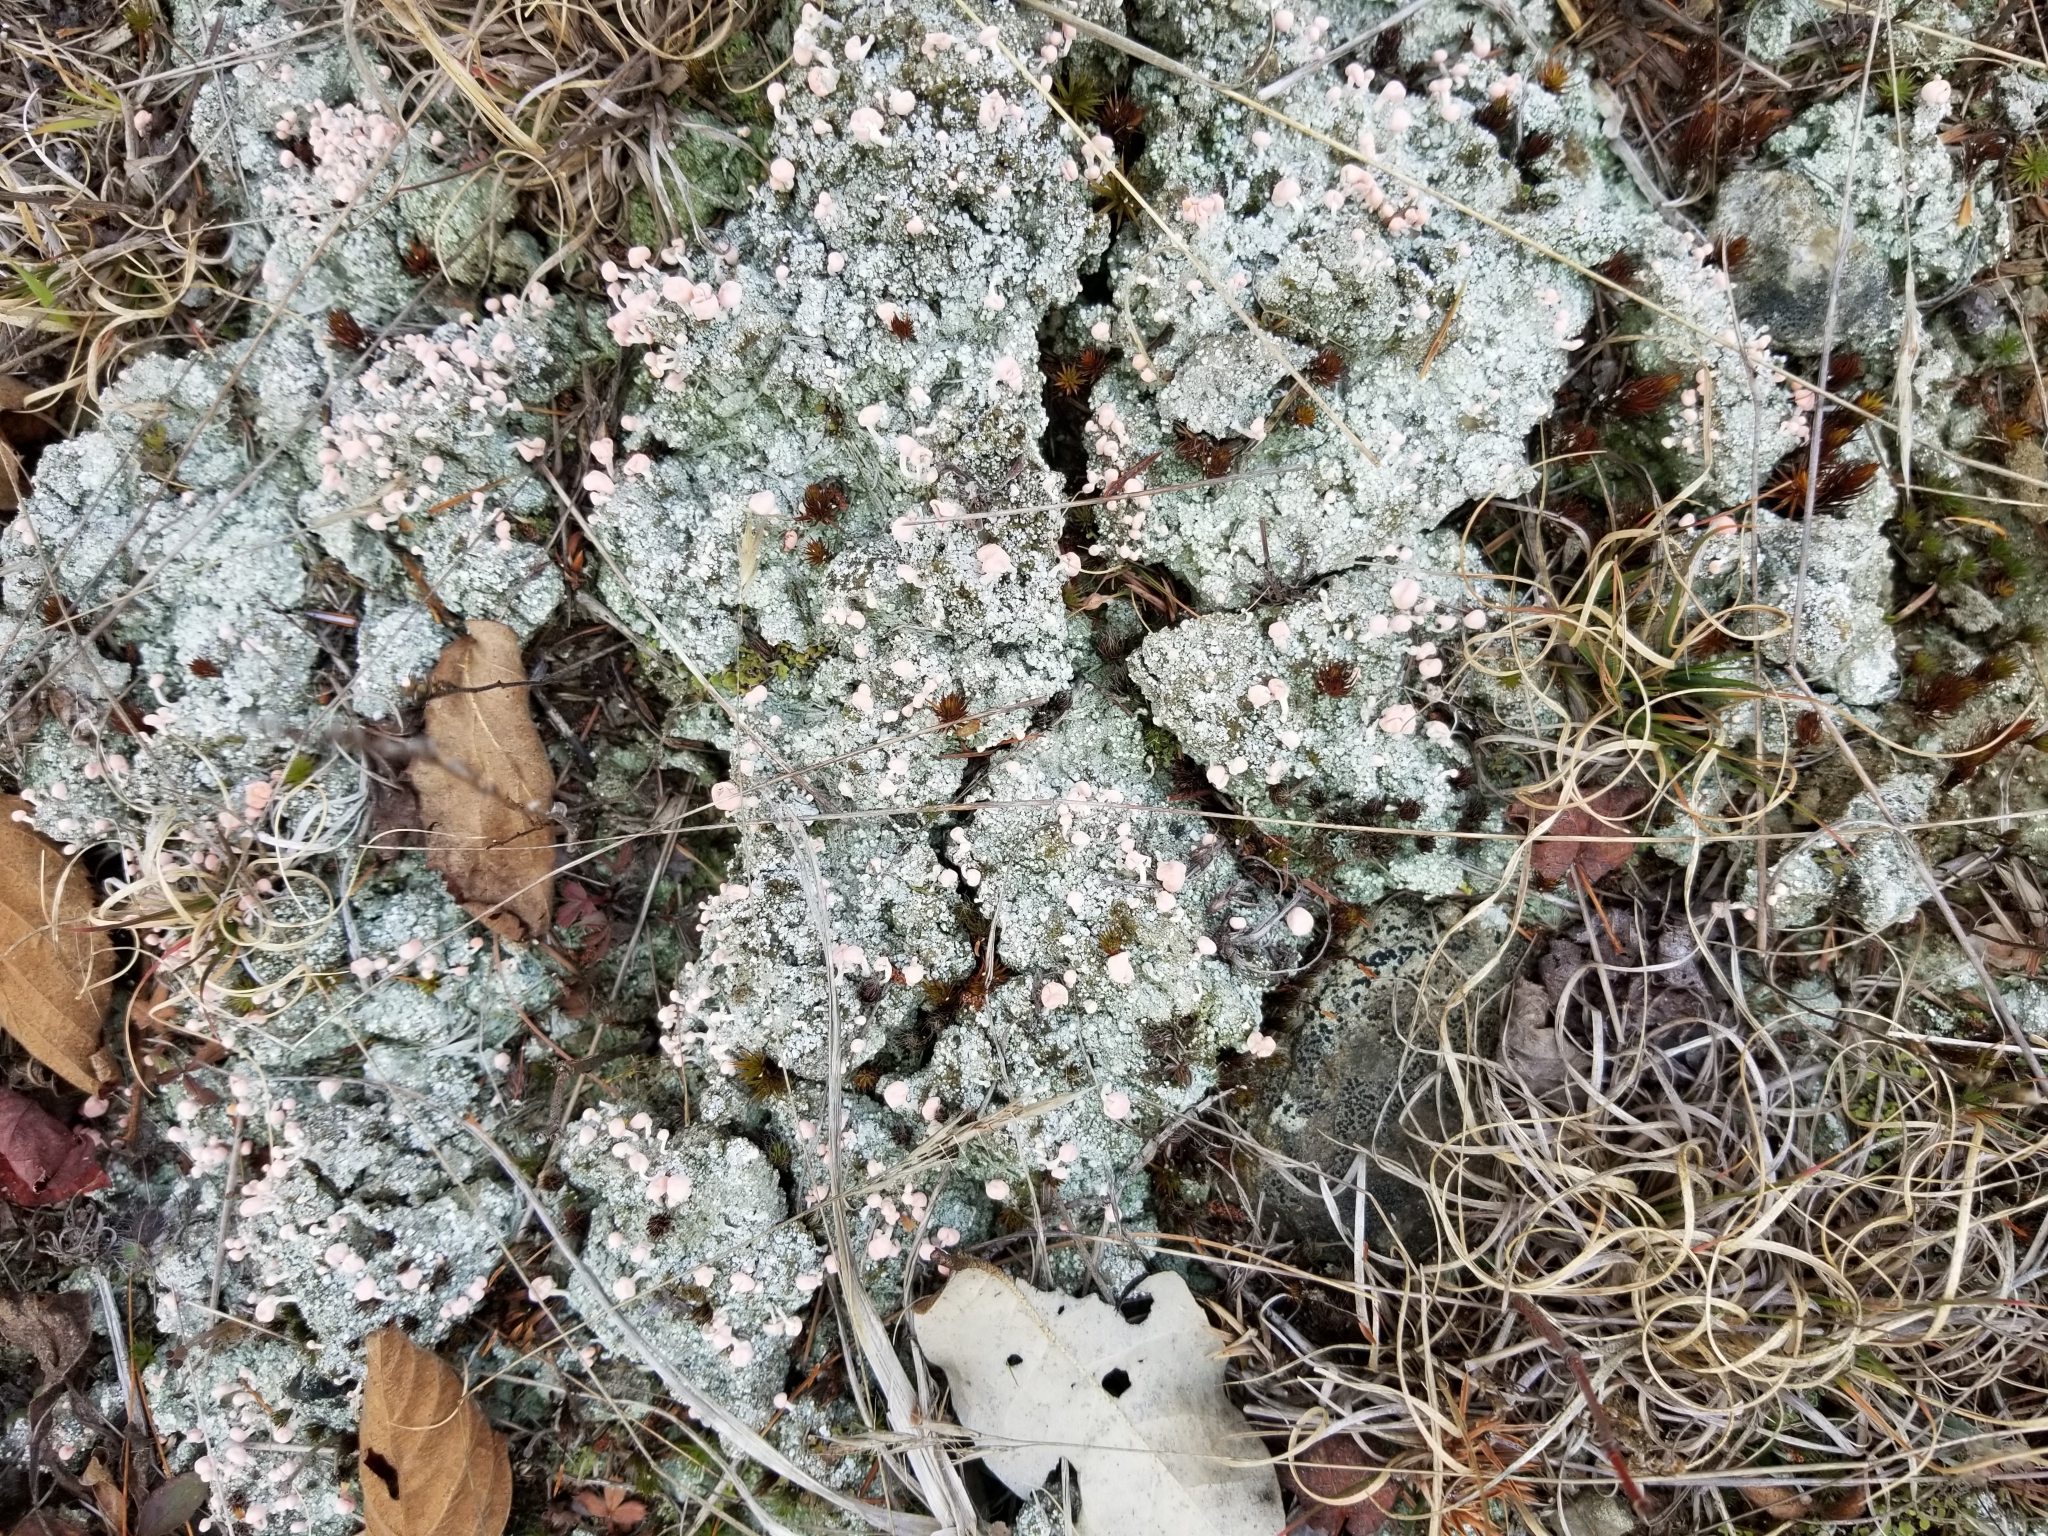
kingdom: Fungi
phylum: Ascomycota
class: Lecanoromycetes
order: Pertusariales
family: Icmadophilaceae
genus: Dibaeis
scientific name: Dibaeis baeomyces
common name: Pink earth lichen
